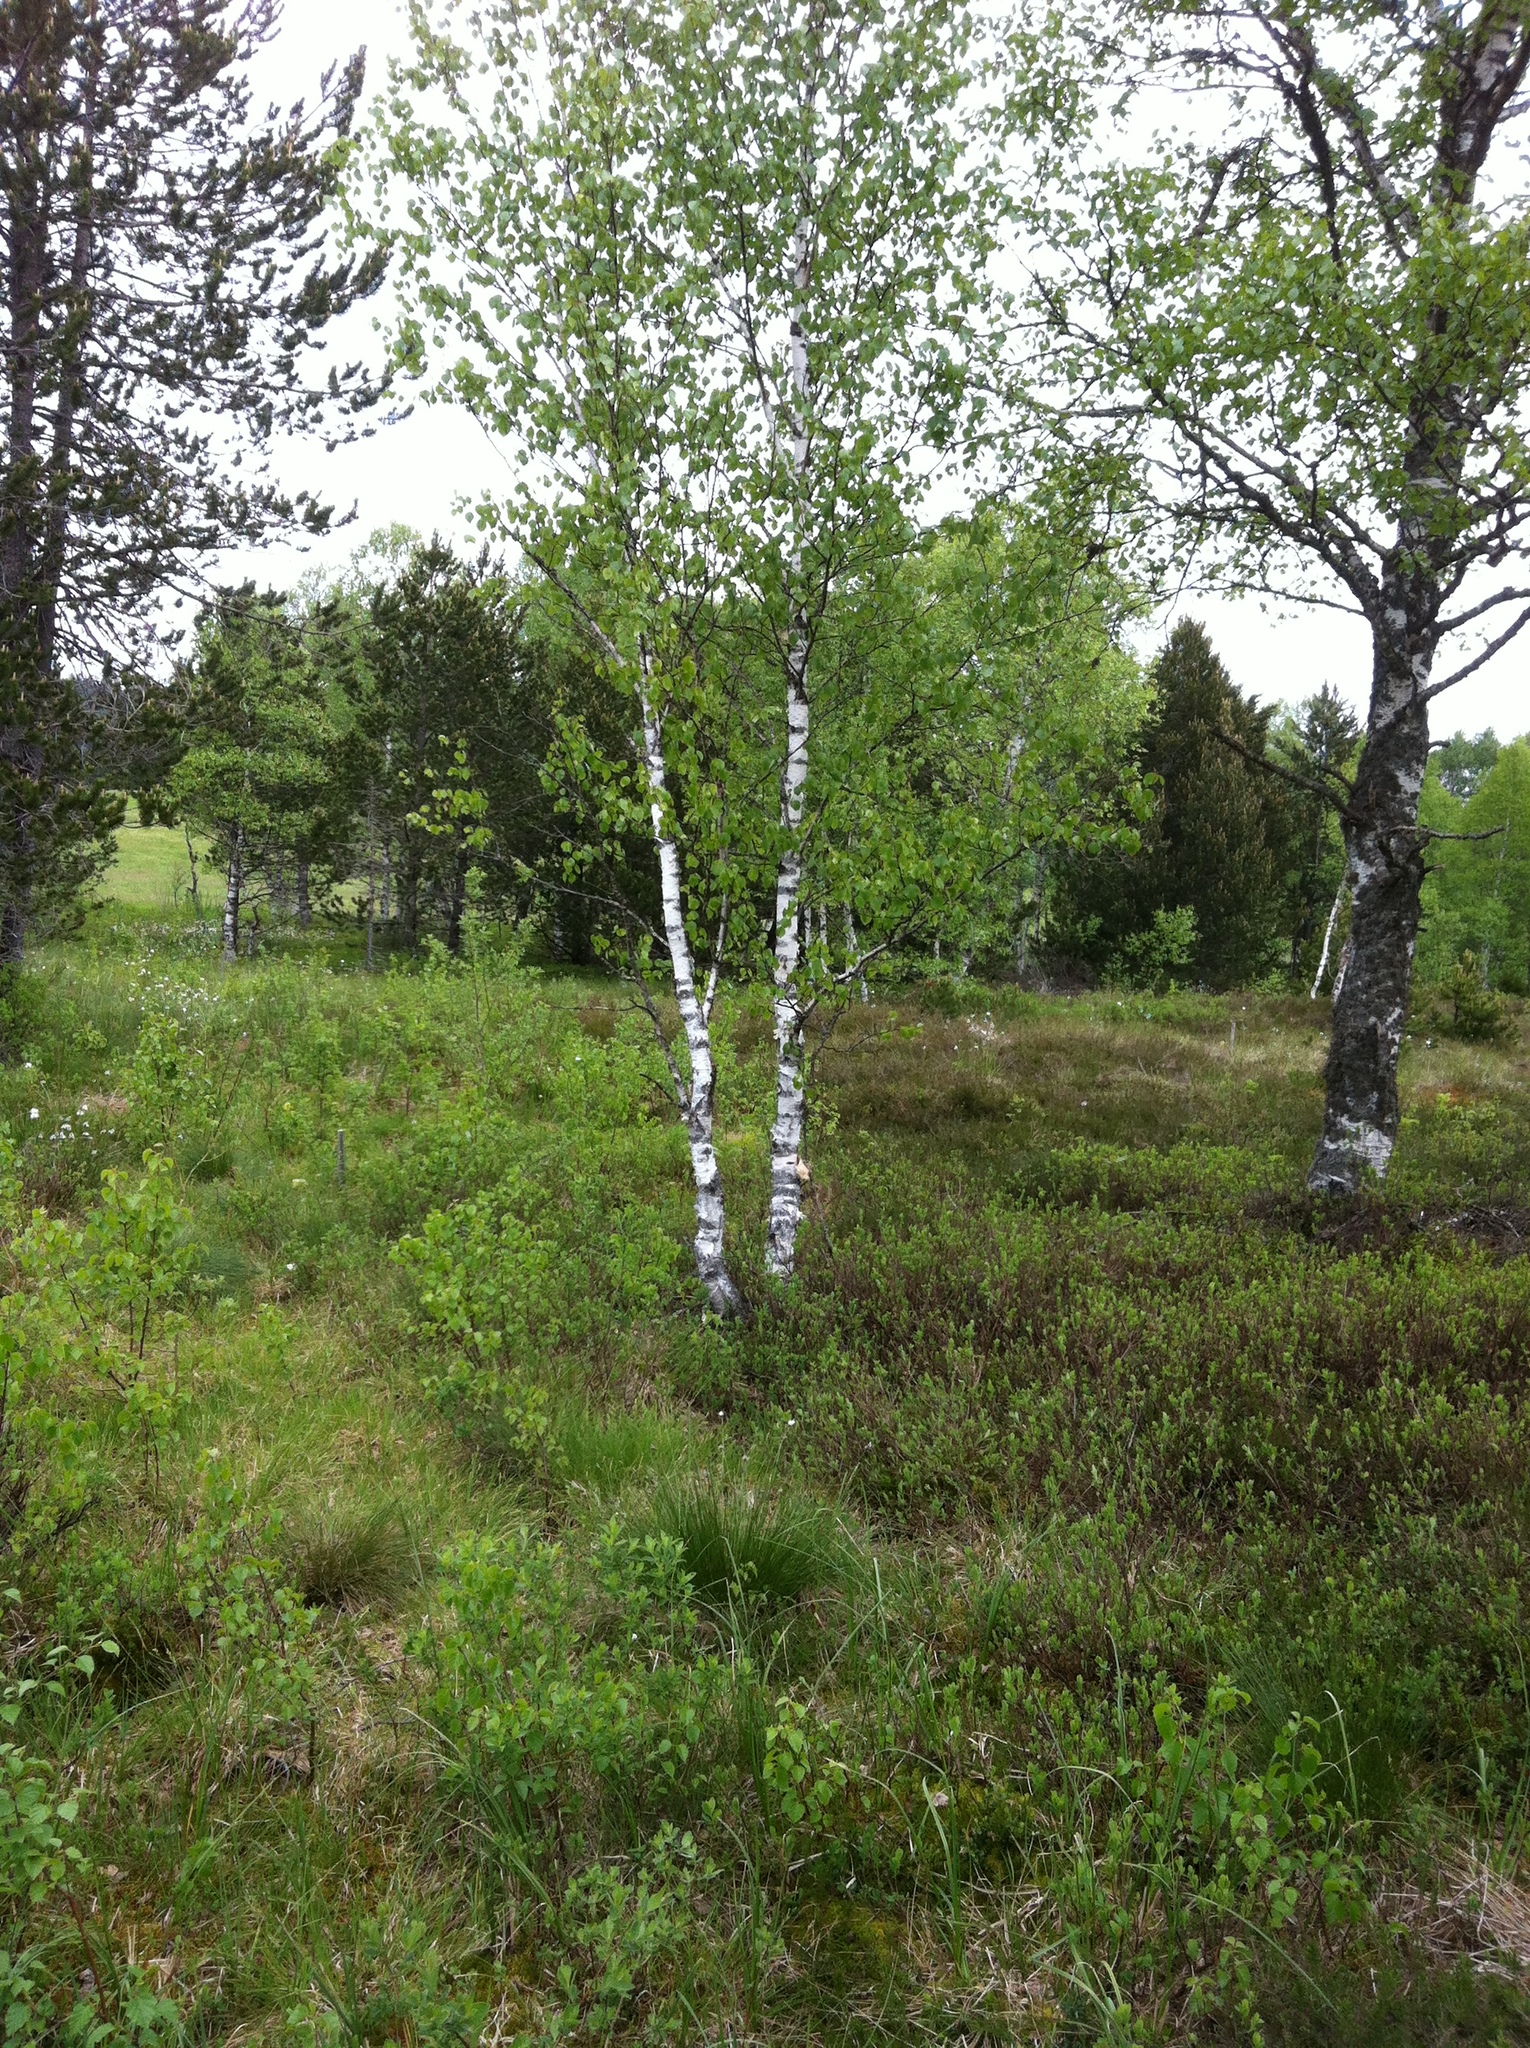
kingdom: Plantae
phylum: Tracheophyta
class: Magnoliopsida
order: Fagales
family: Betulaceae
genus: Betula
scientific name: Betula pubescens
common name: Downy birch
